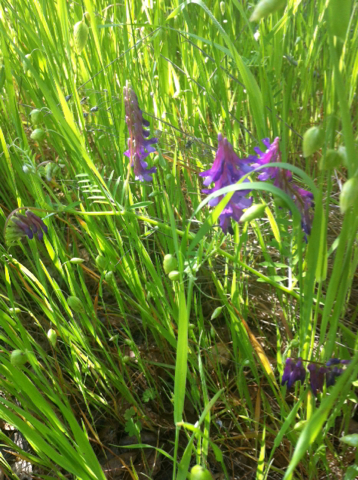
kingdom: Plantae
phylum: Tracheophyta
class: Magnoliopsida
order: Fabales
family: Fabaceae
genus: Vicia
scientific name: Vicia villosa
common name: Fodder vetch
